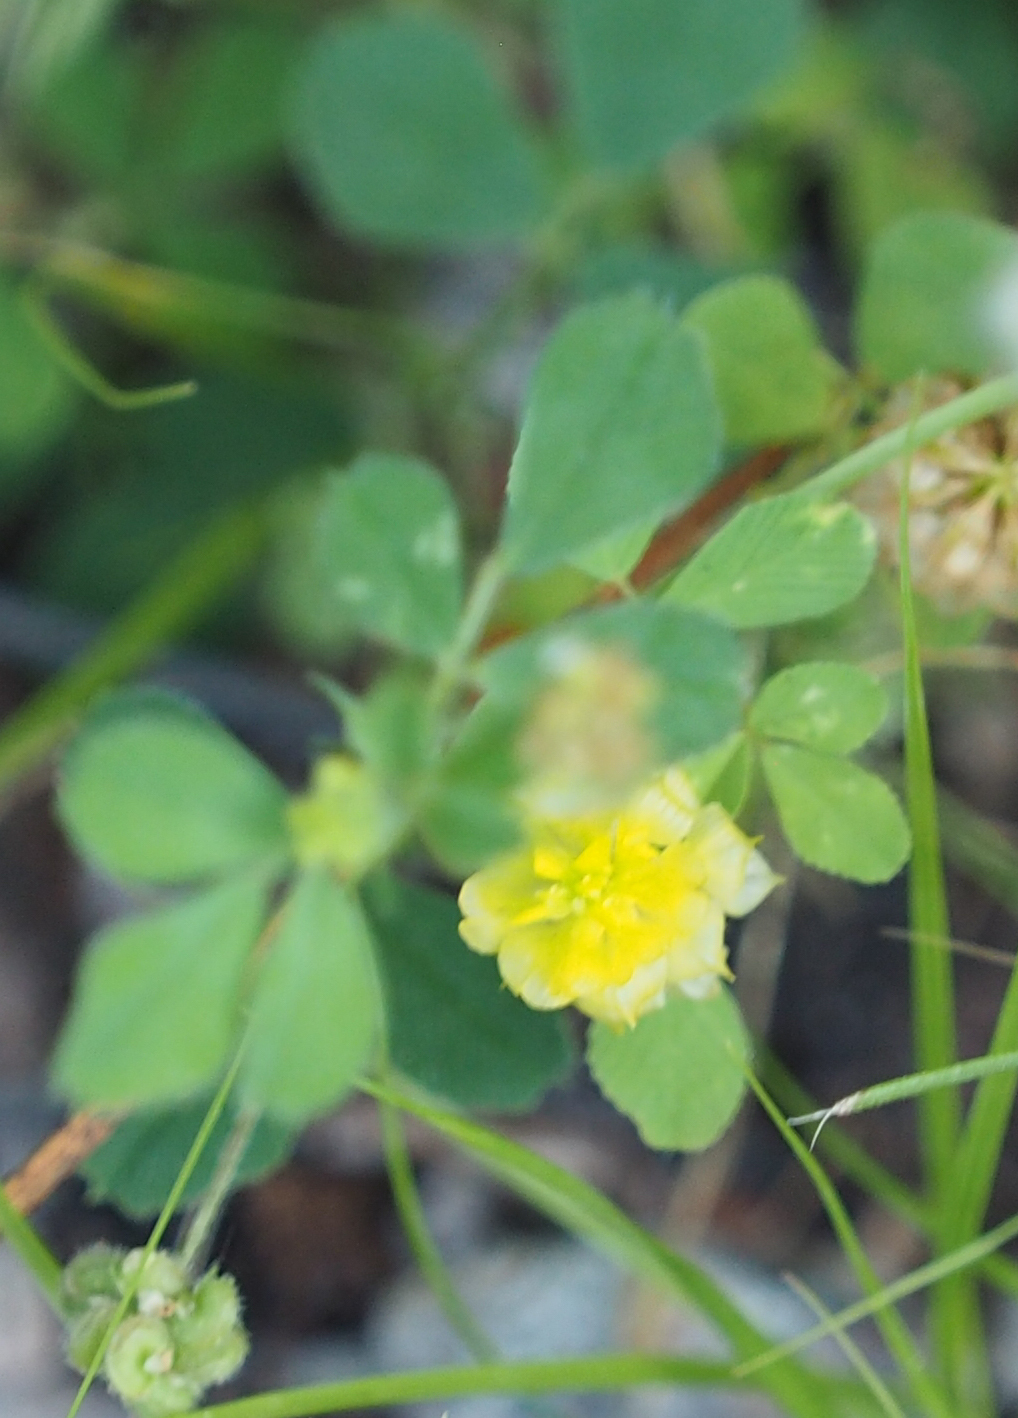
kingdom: Plantae
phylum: Tracheophyta
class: Magnoliopsida
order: Fabales
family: Fabaceae
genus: Trifolium
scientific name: Trifolium campestre
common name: Field clover
